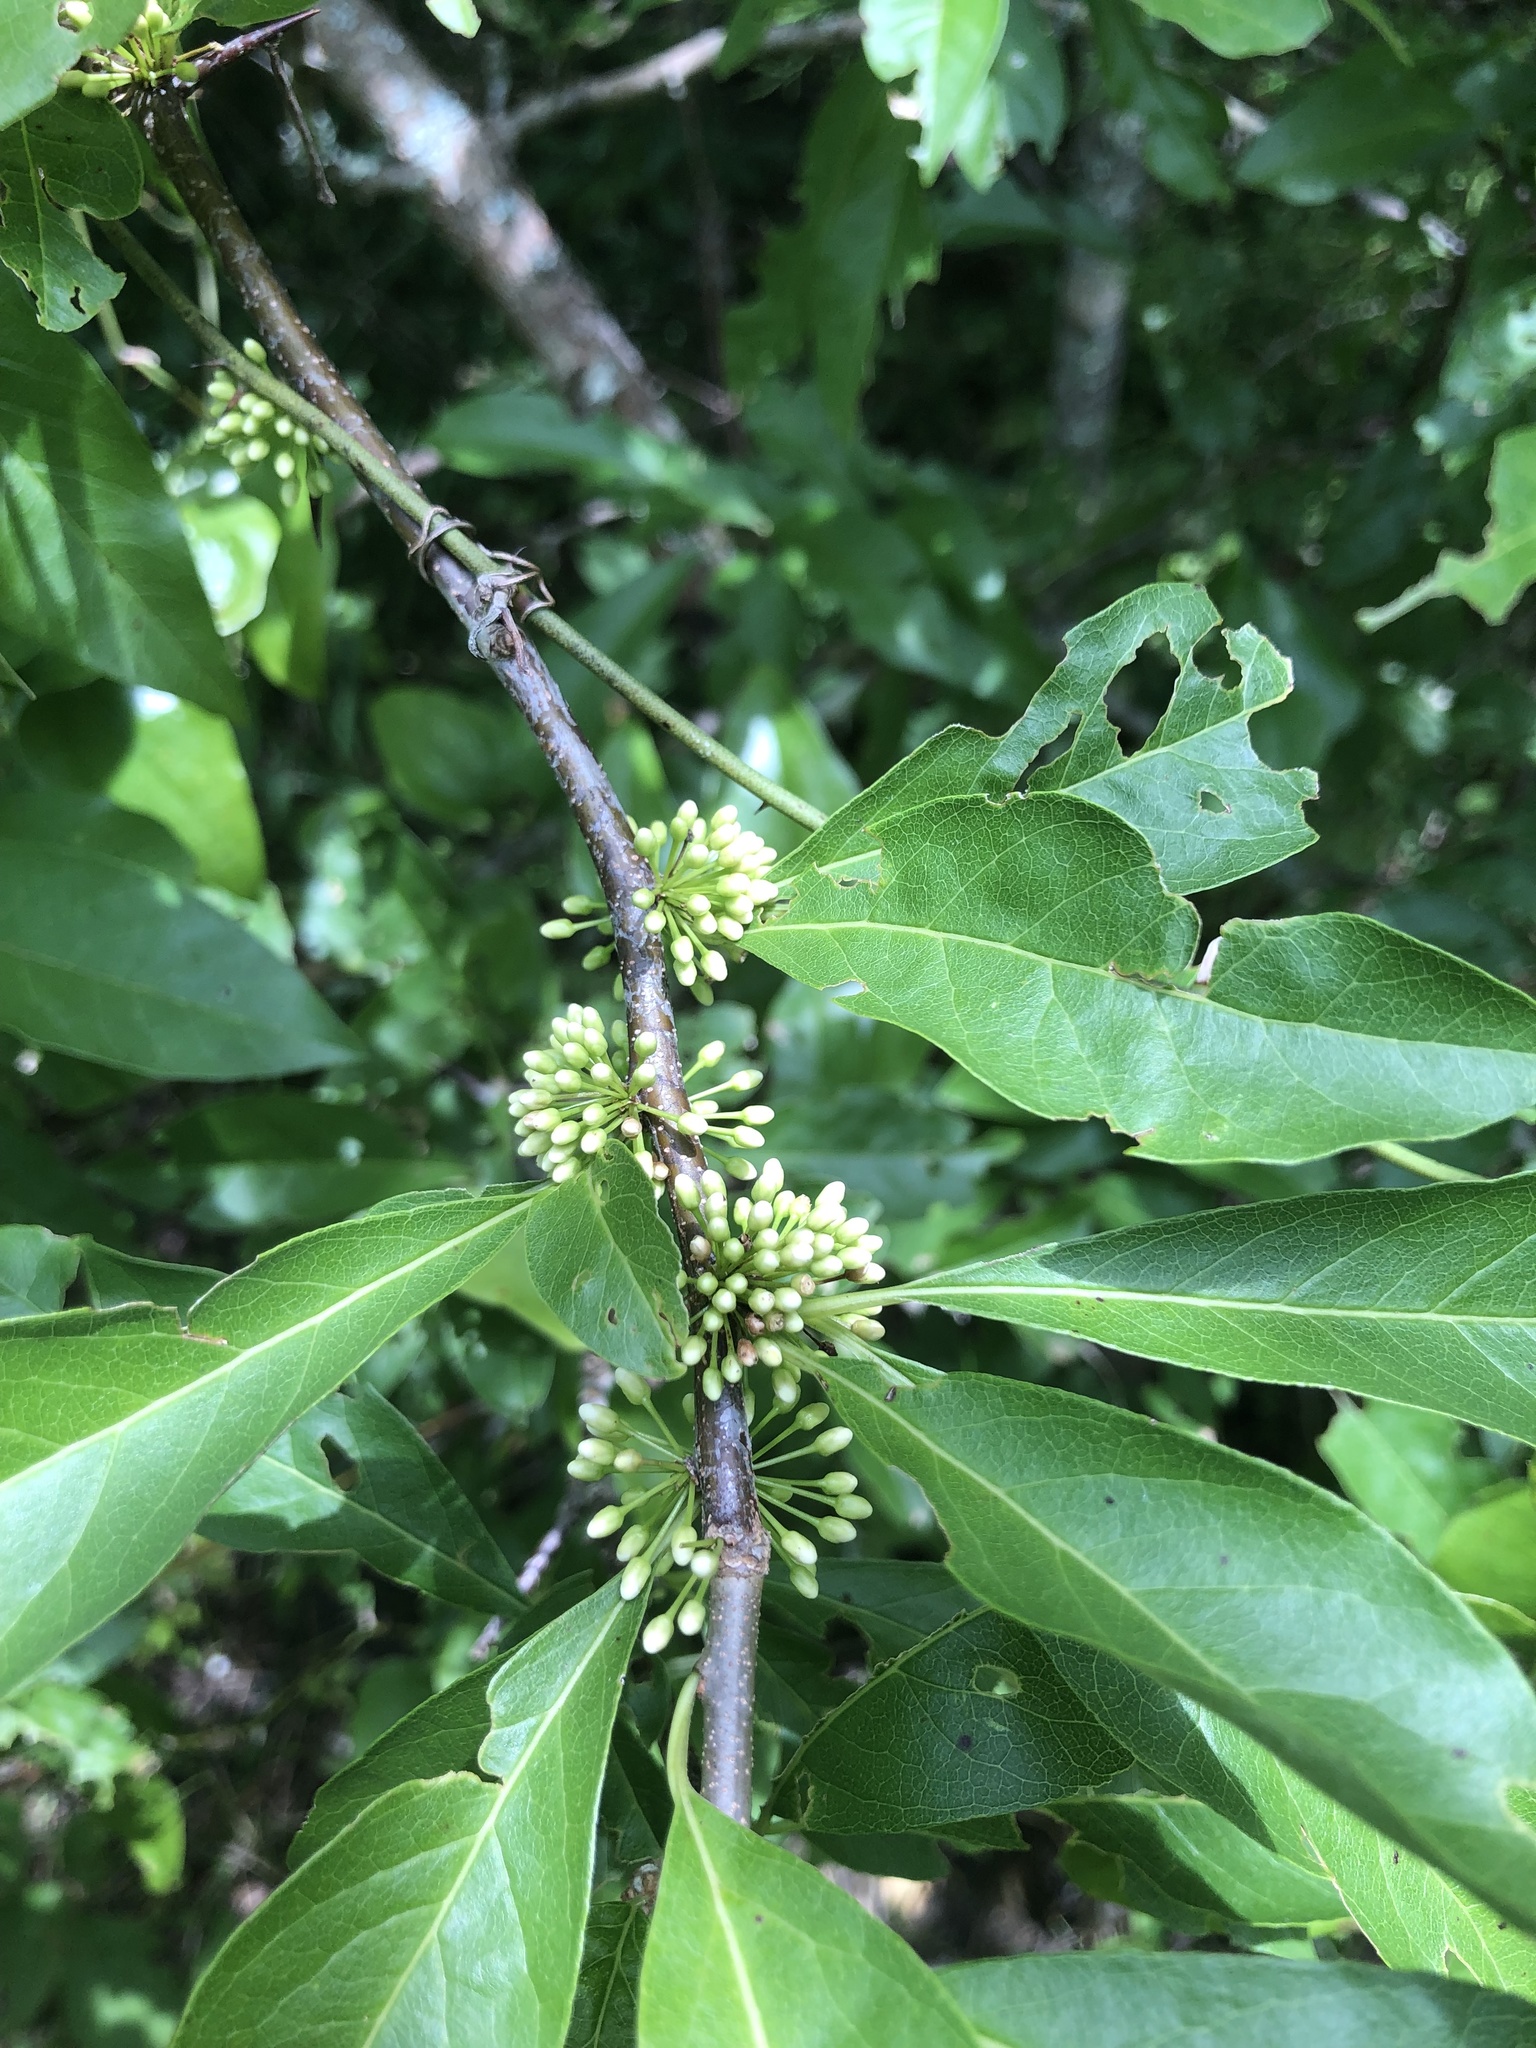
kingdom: Plantae
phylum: Tracheophyta
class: Magnoliopsida
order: Ericales
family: Sapotaceae
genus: Sideroxylon
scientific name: Sideroxylon lycioides
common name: Buckthorn bumelia
